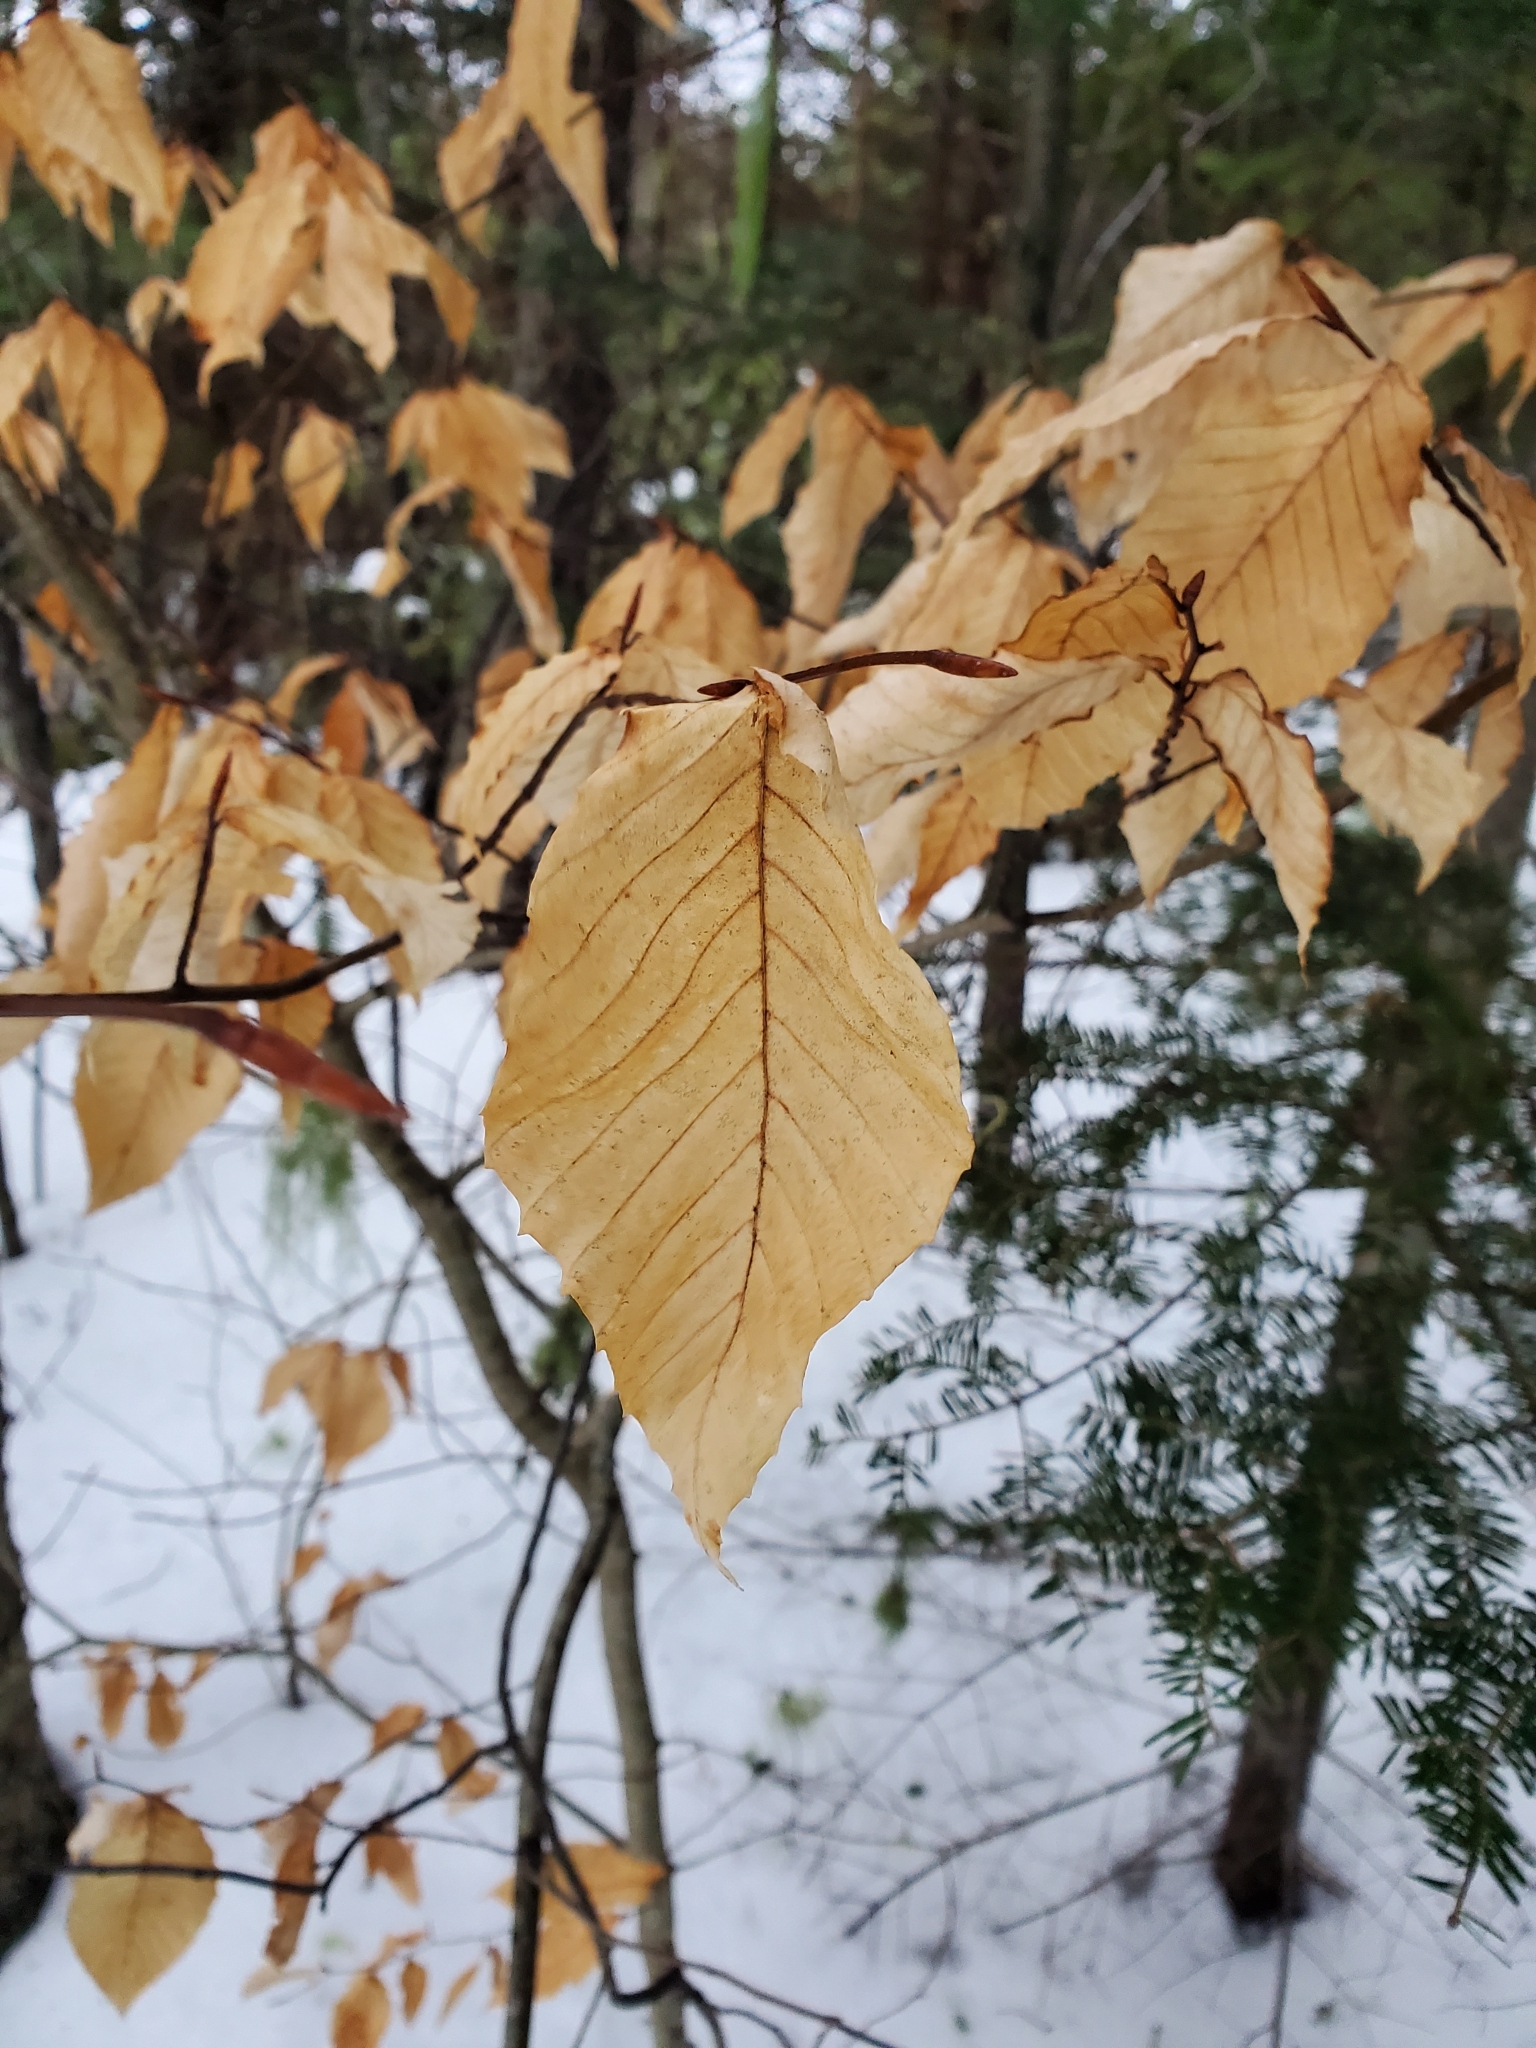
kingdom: Plantae
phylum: Tracheophyta
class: Magnoliopsida
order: Fagales
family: Fagaceae
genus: Fagus
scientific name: Fagus grandifolia
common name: American beech
